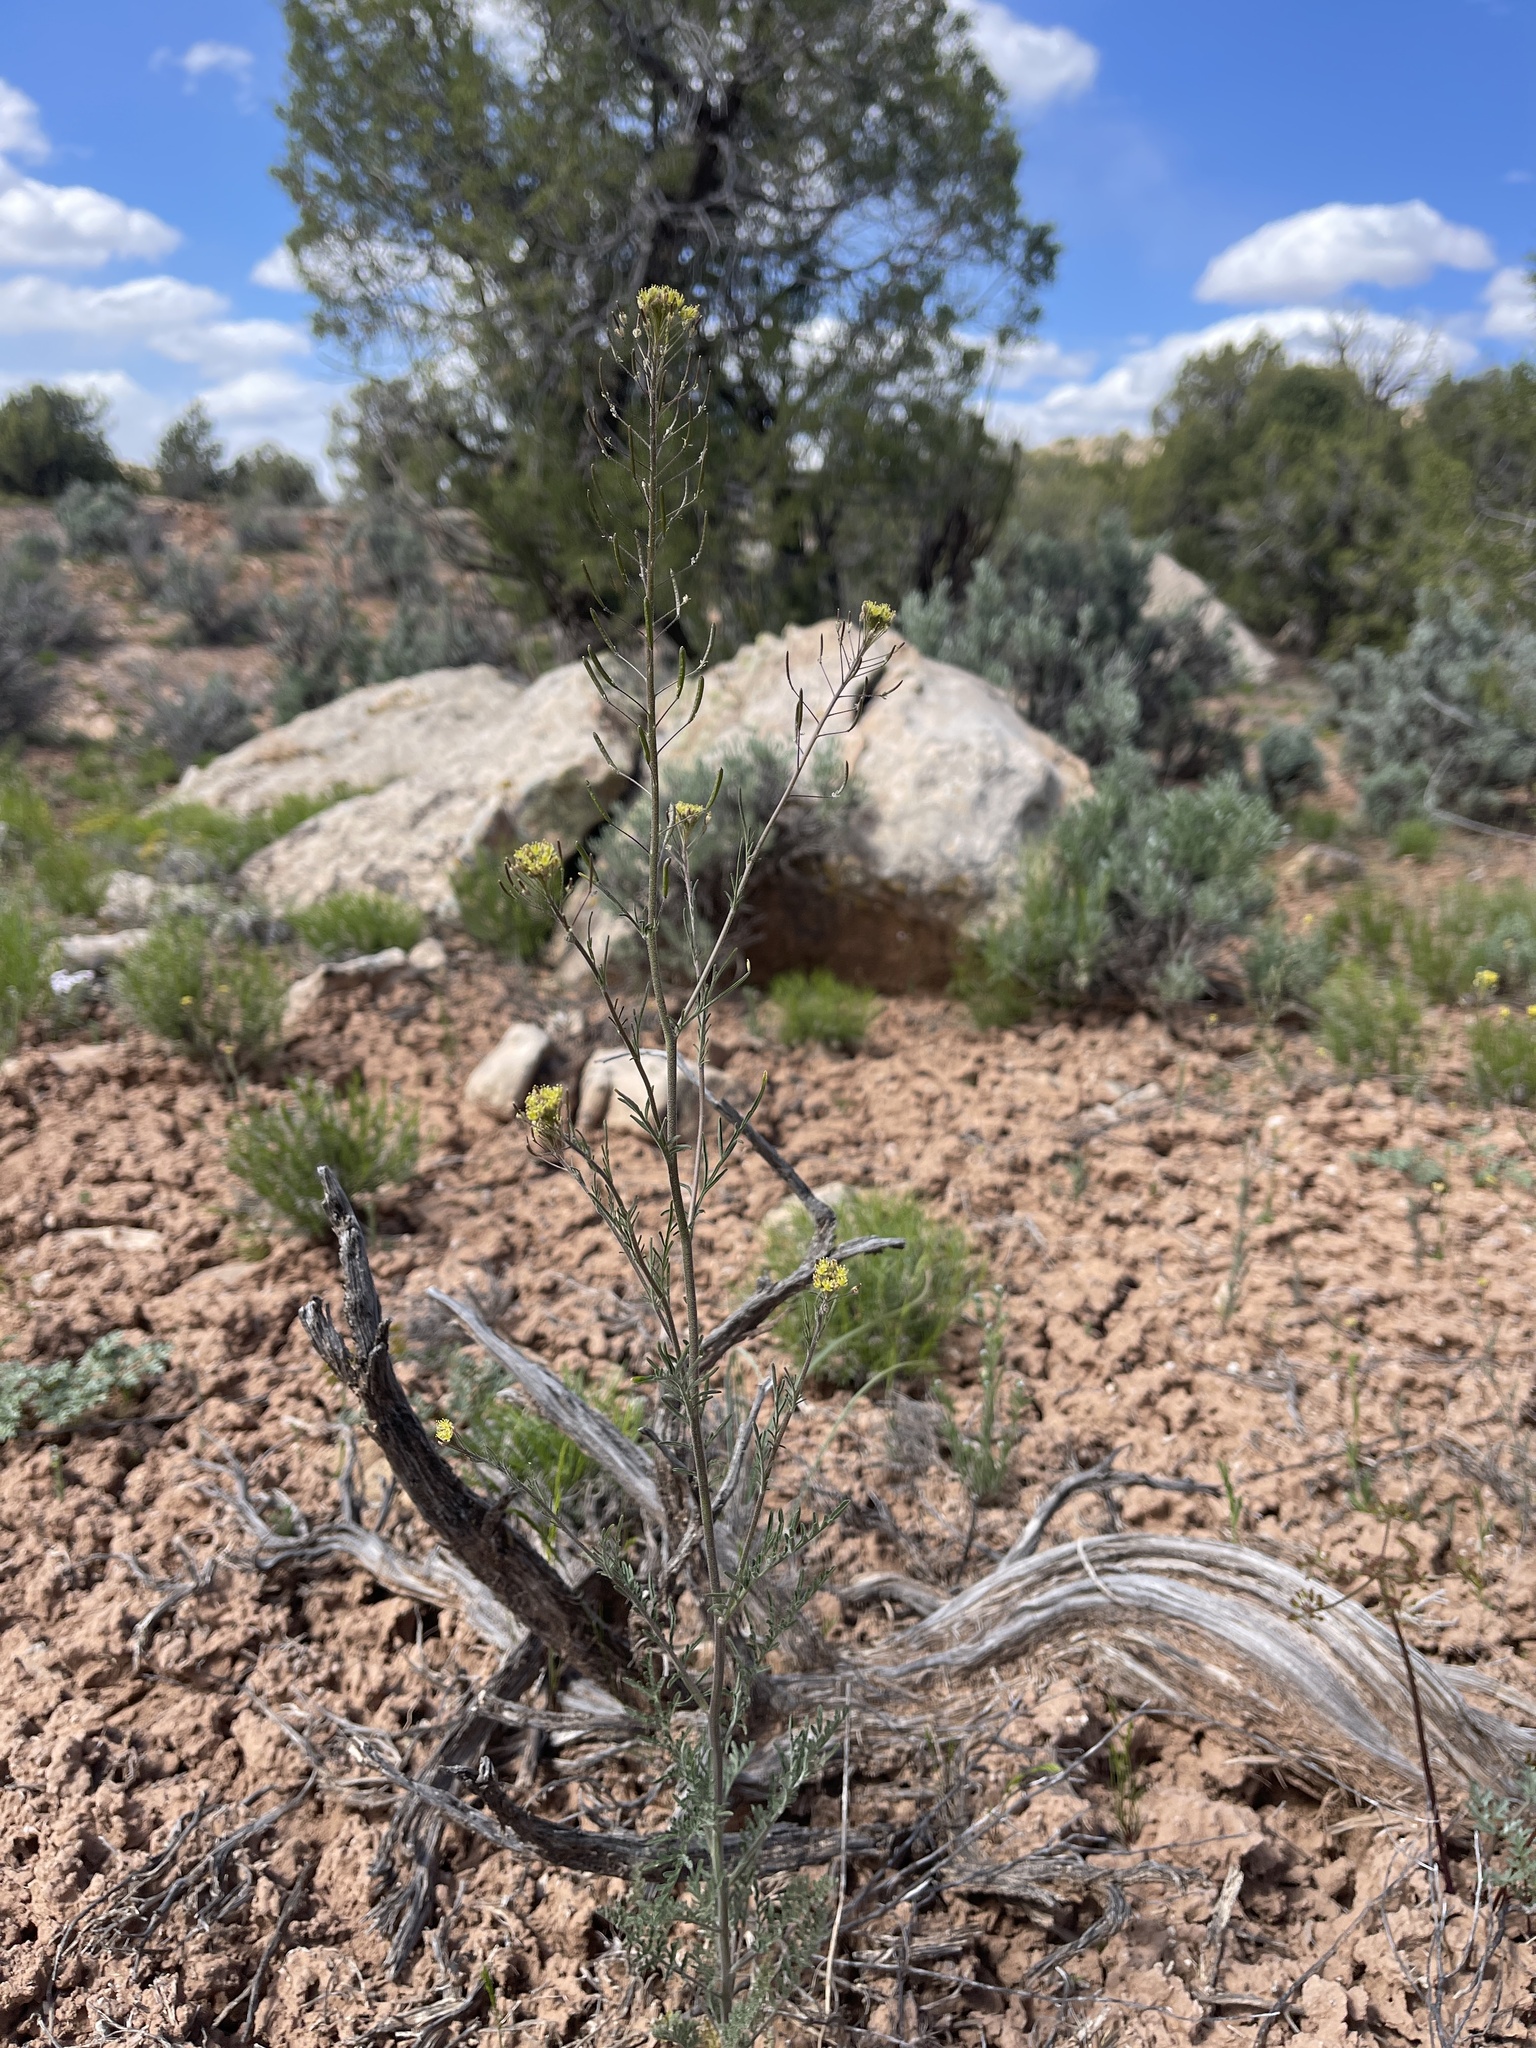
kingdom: Plantae
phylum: Tracheophyta
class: Magnoliopsida
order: Brassicales
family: Brassicaceae
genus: Descurainia
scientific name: Descurainia pinnata
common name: Western tansy mustard
